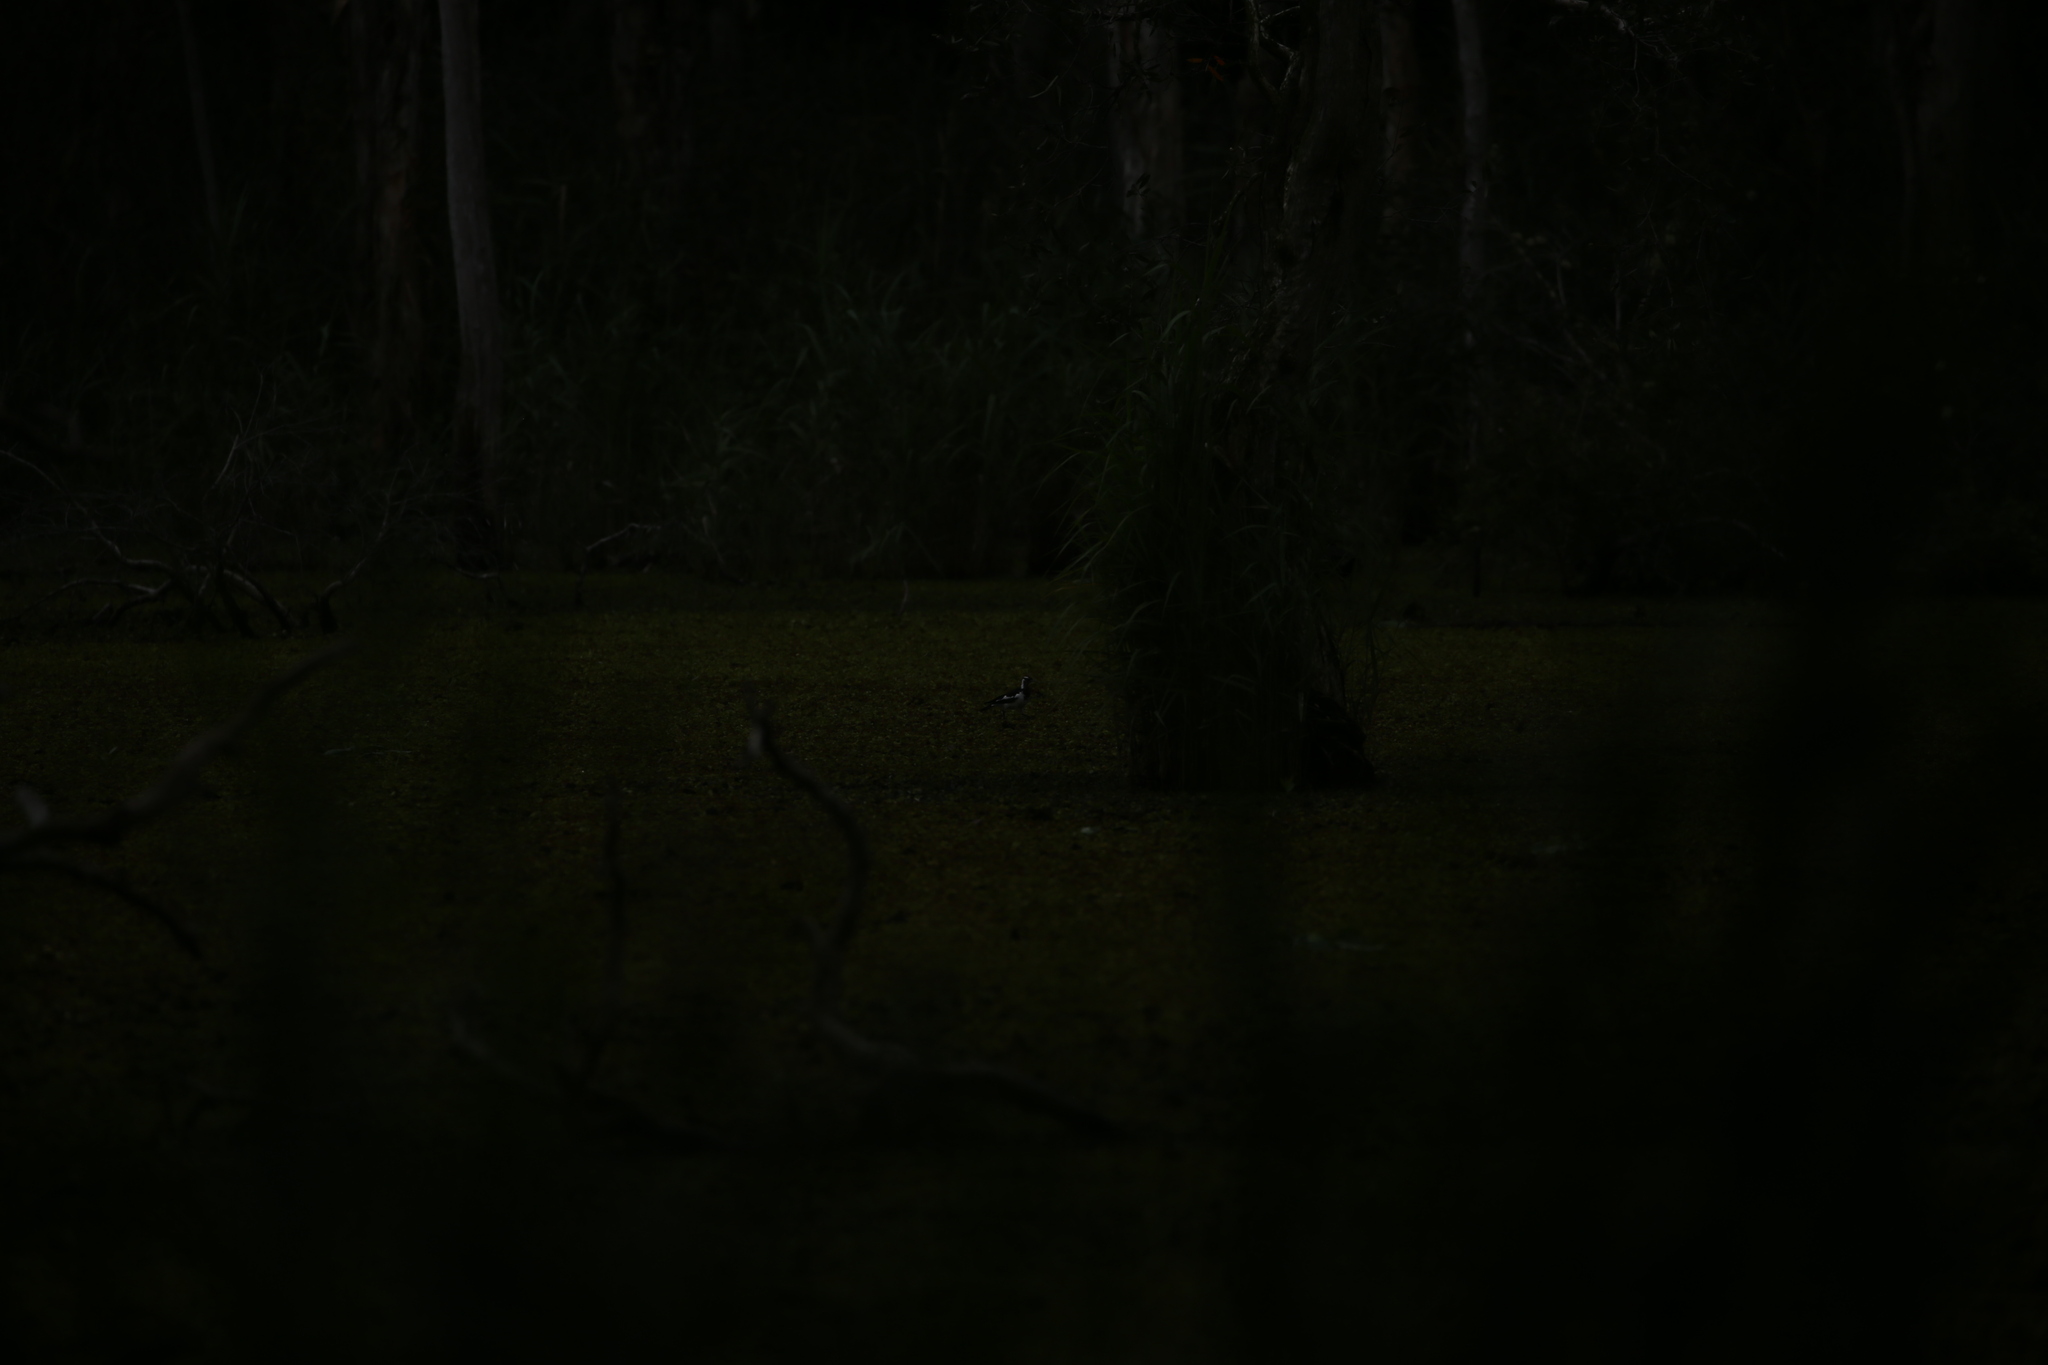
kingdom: Animalia
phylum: Chordata
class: Aves
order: Passeriformes
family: Monarchidae
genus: Grallina
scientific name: Grallina cyanoleuca
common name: Magpie-lark
